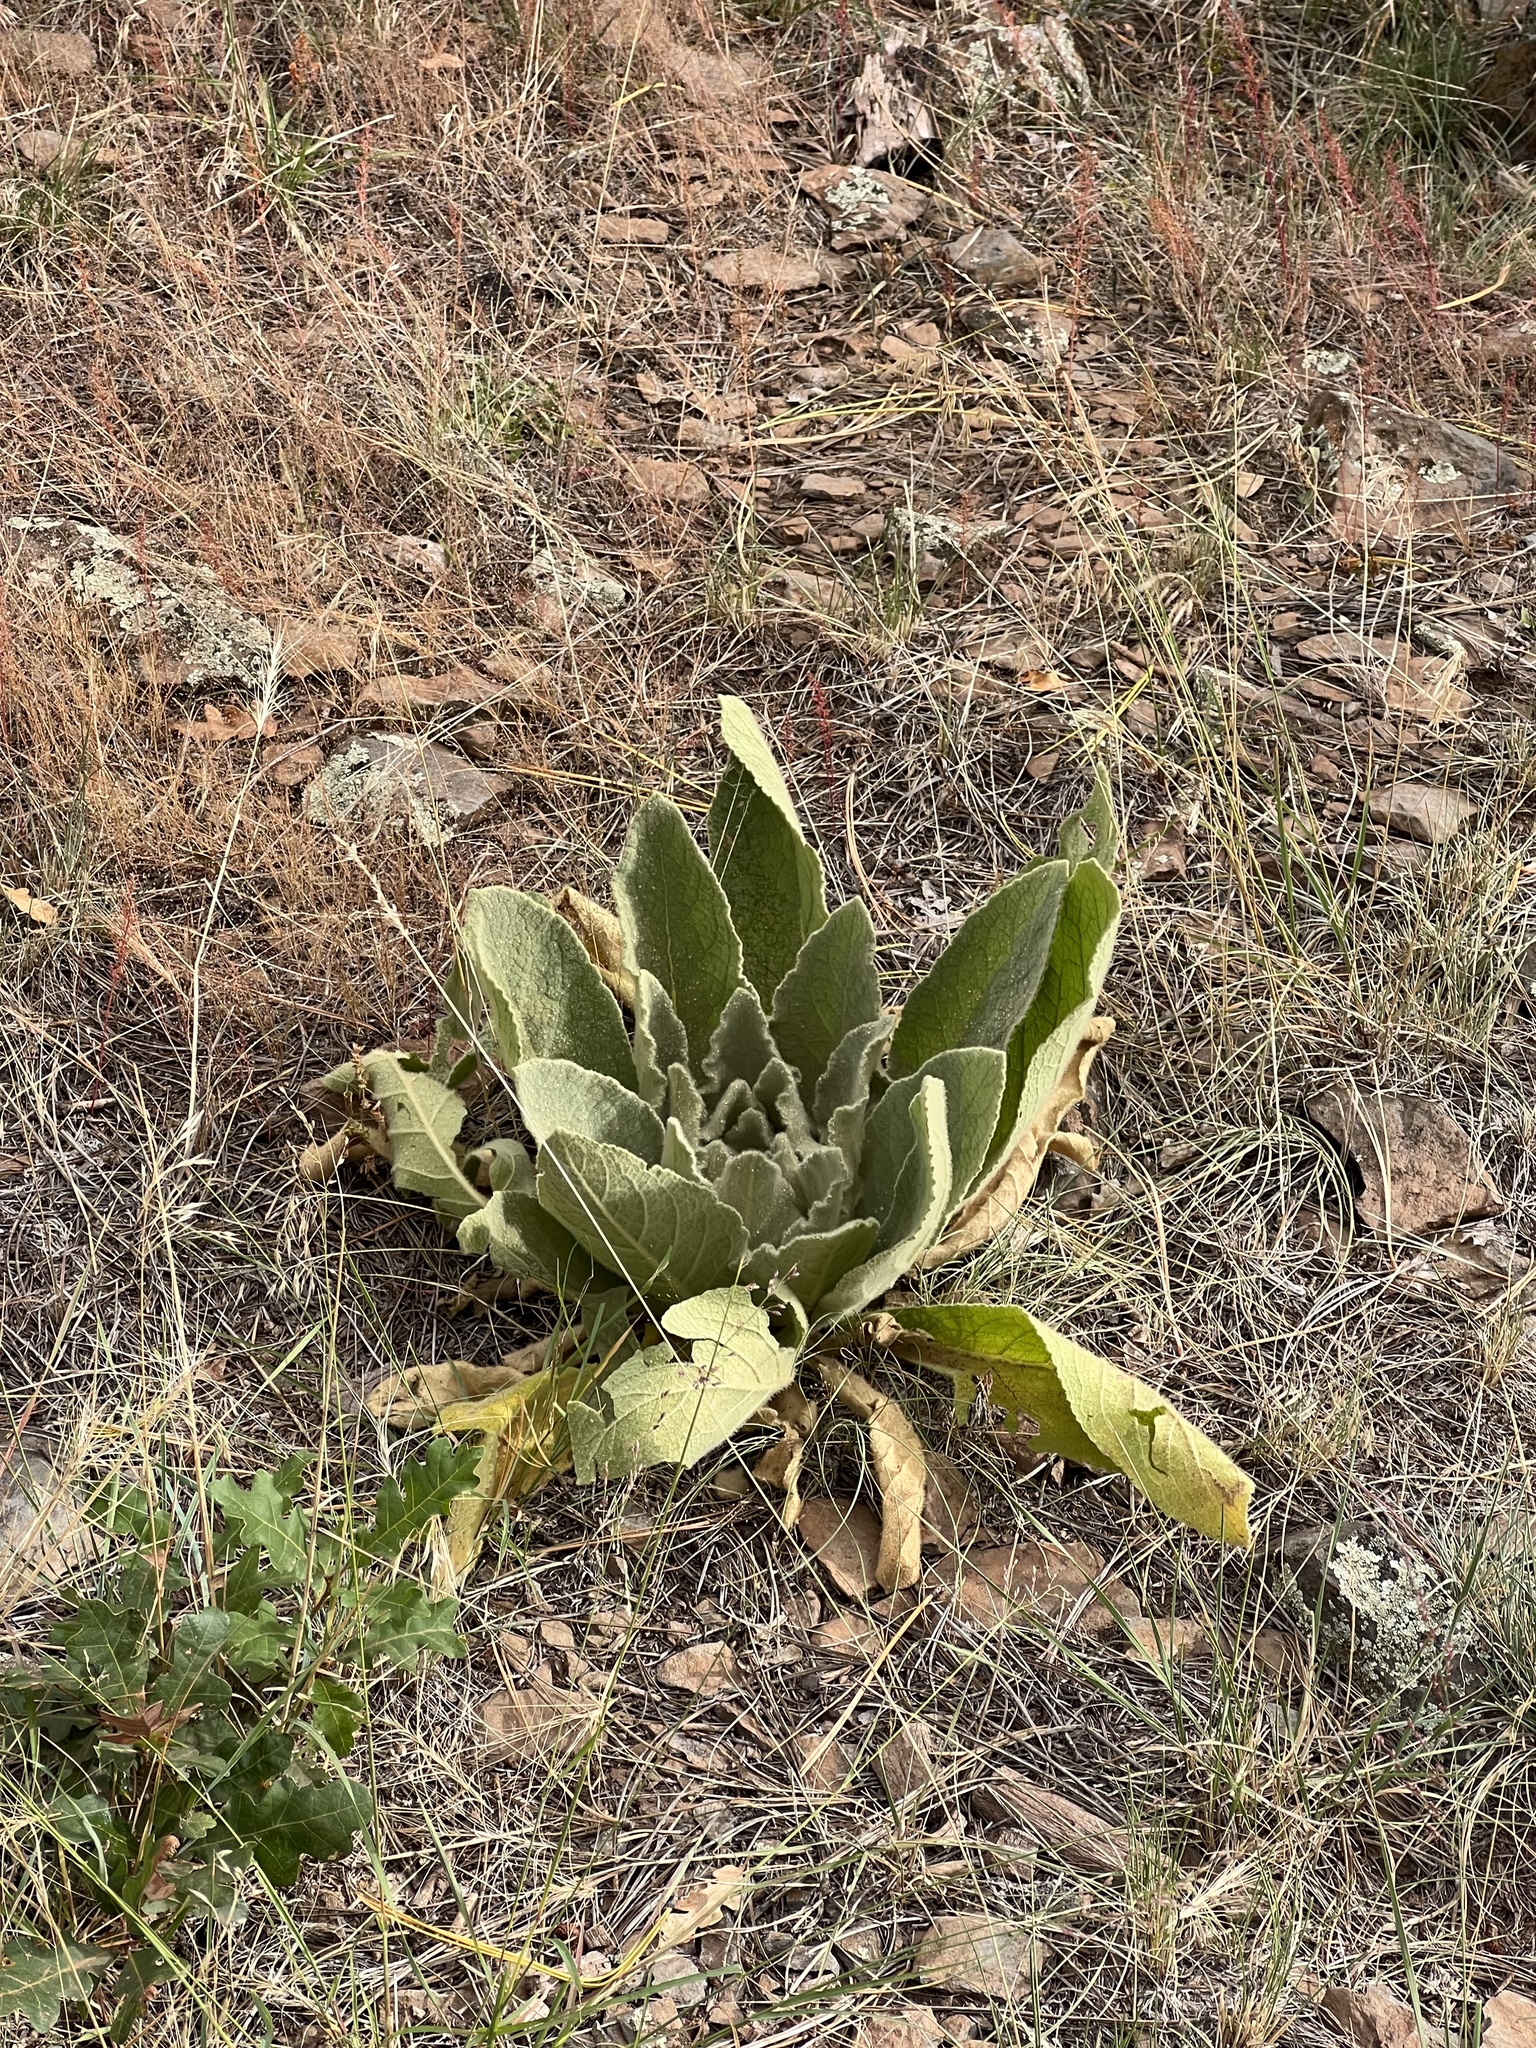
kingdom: Plantae
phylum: Tracheophyta
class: Magnoliopsida
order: Lamiales
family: Scrophulariaceae
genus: Verbascum
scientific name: Verbascum thapsus
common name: Common mullein
